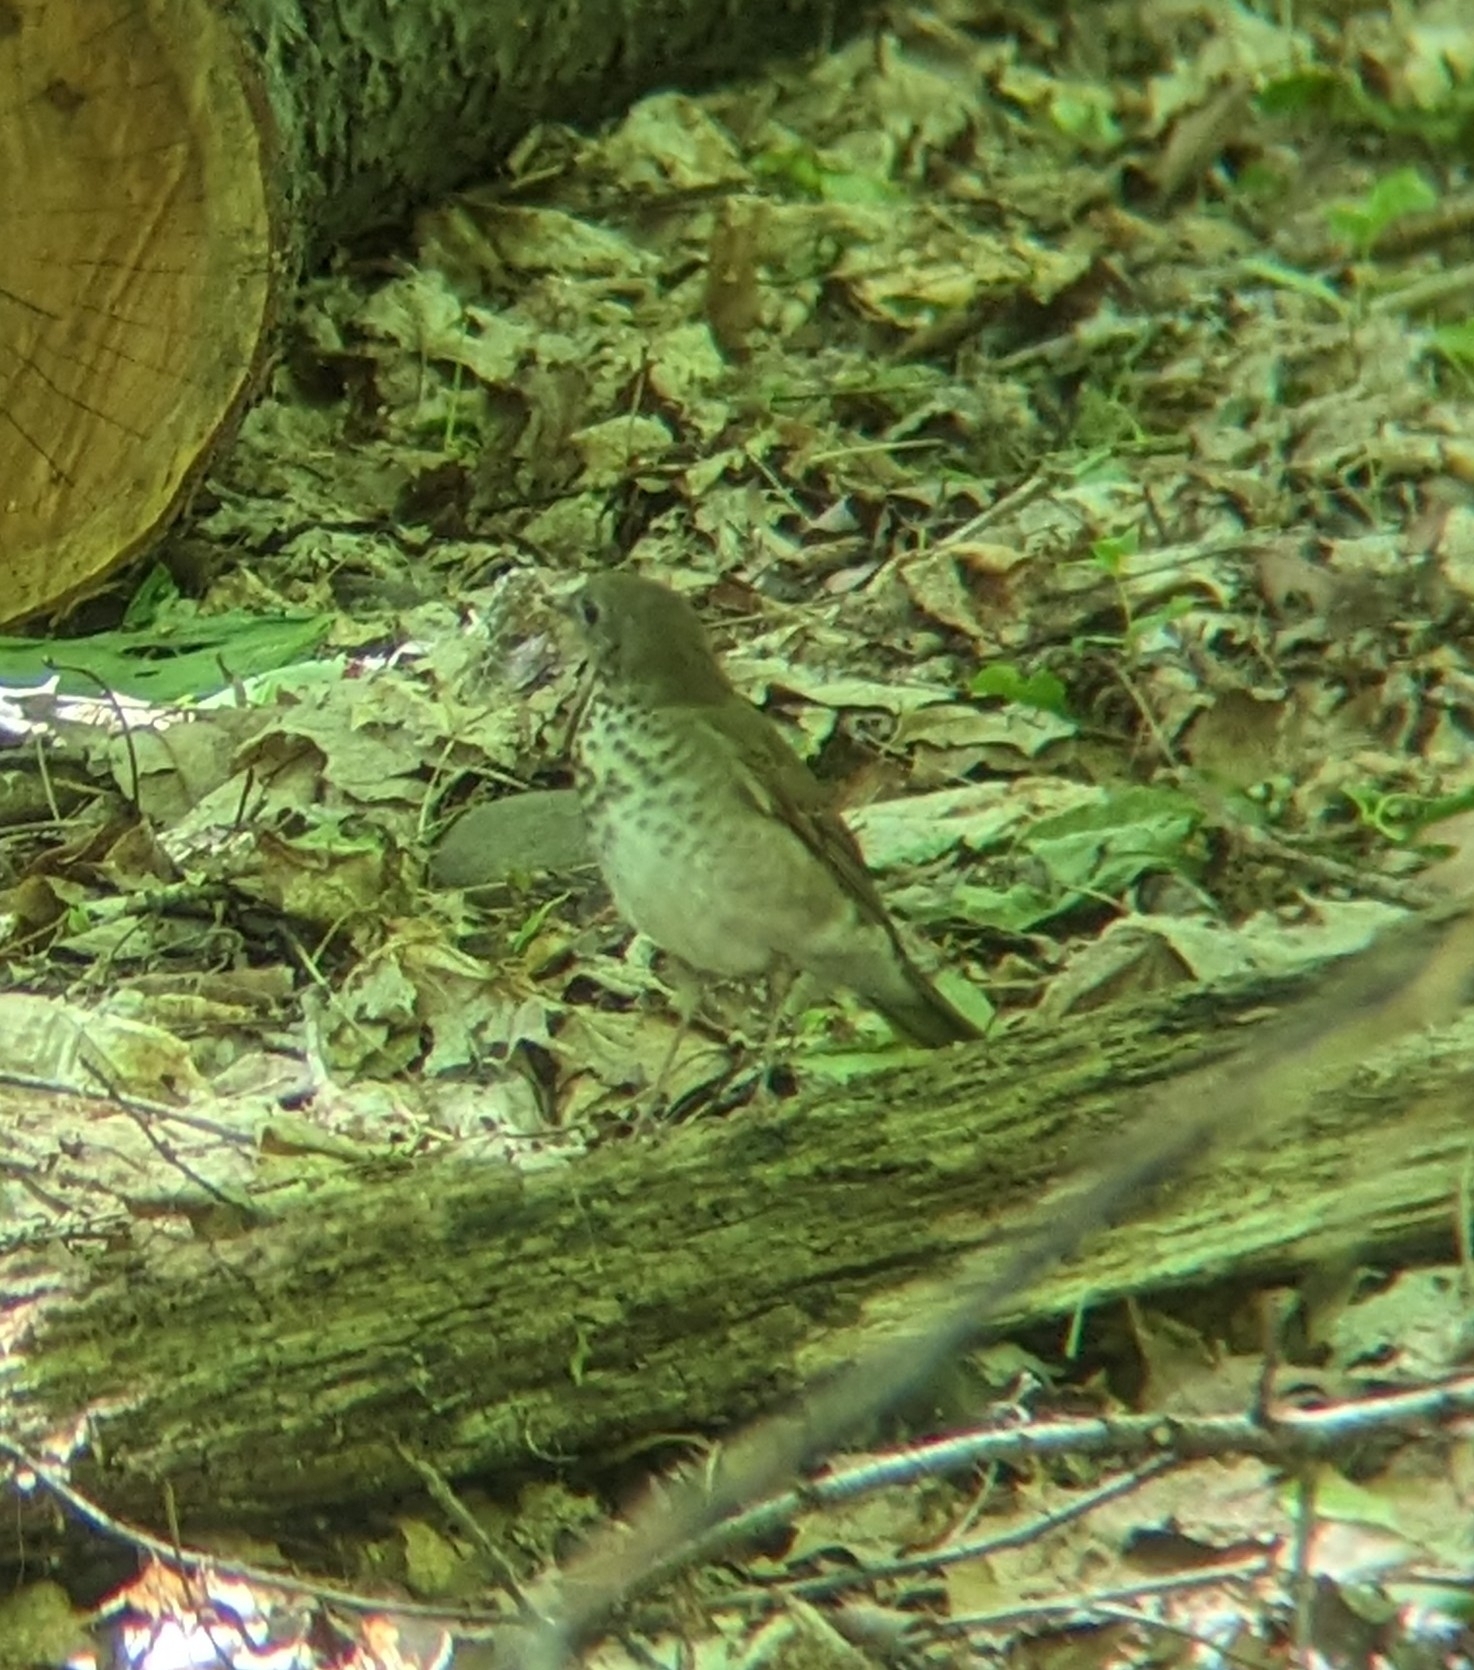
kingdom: Animalia
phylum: Chordata
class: Aves
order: Passeriformes
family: Turdidae
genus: Catharus
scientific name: Catharus minimus
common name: Grey-cheeked thrush
